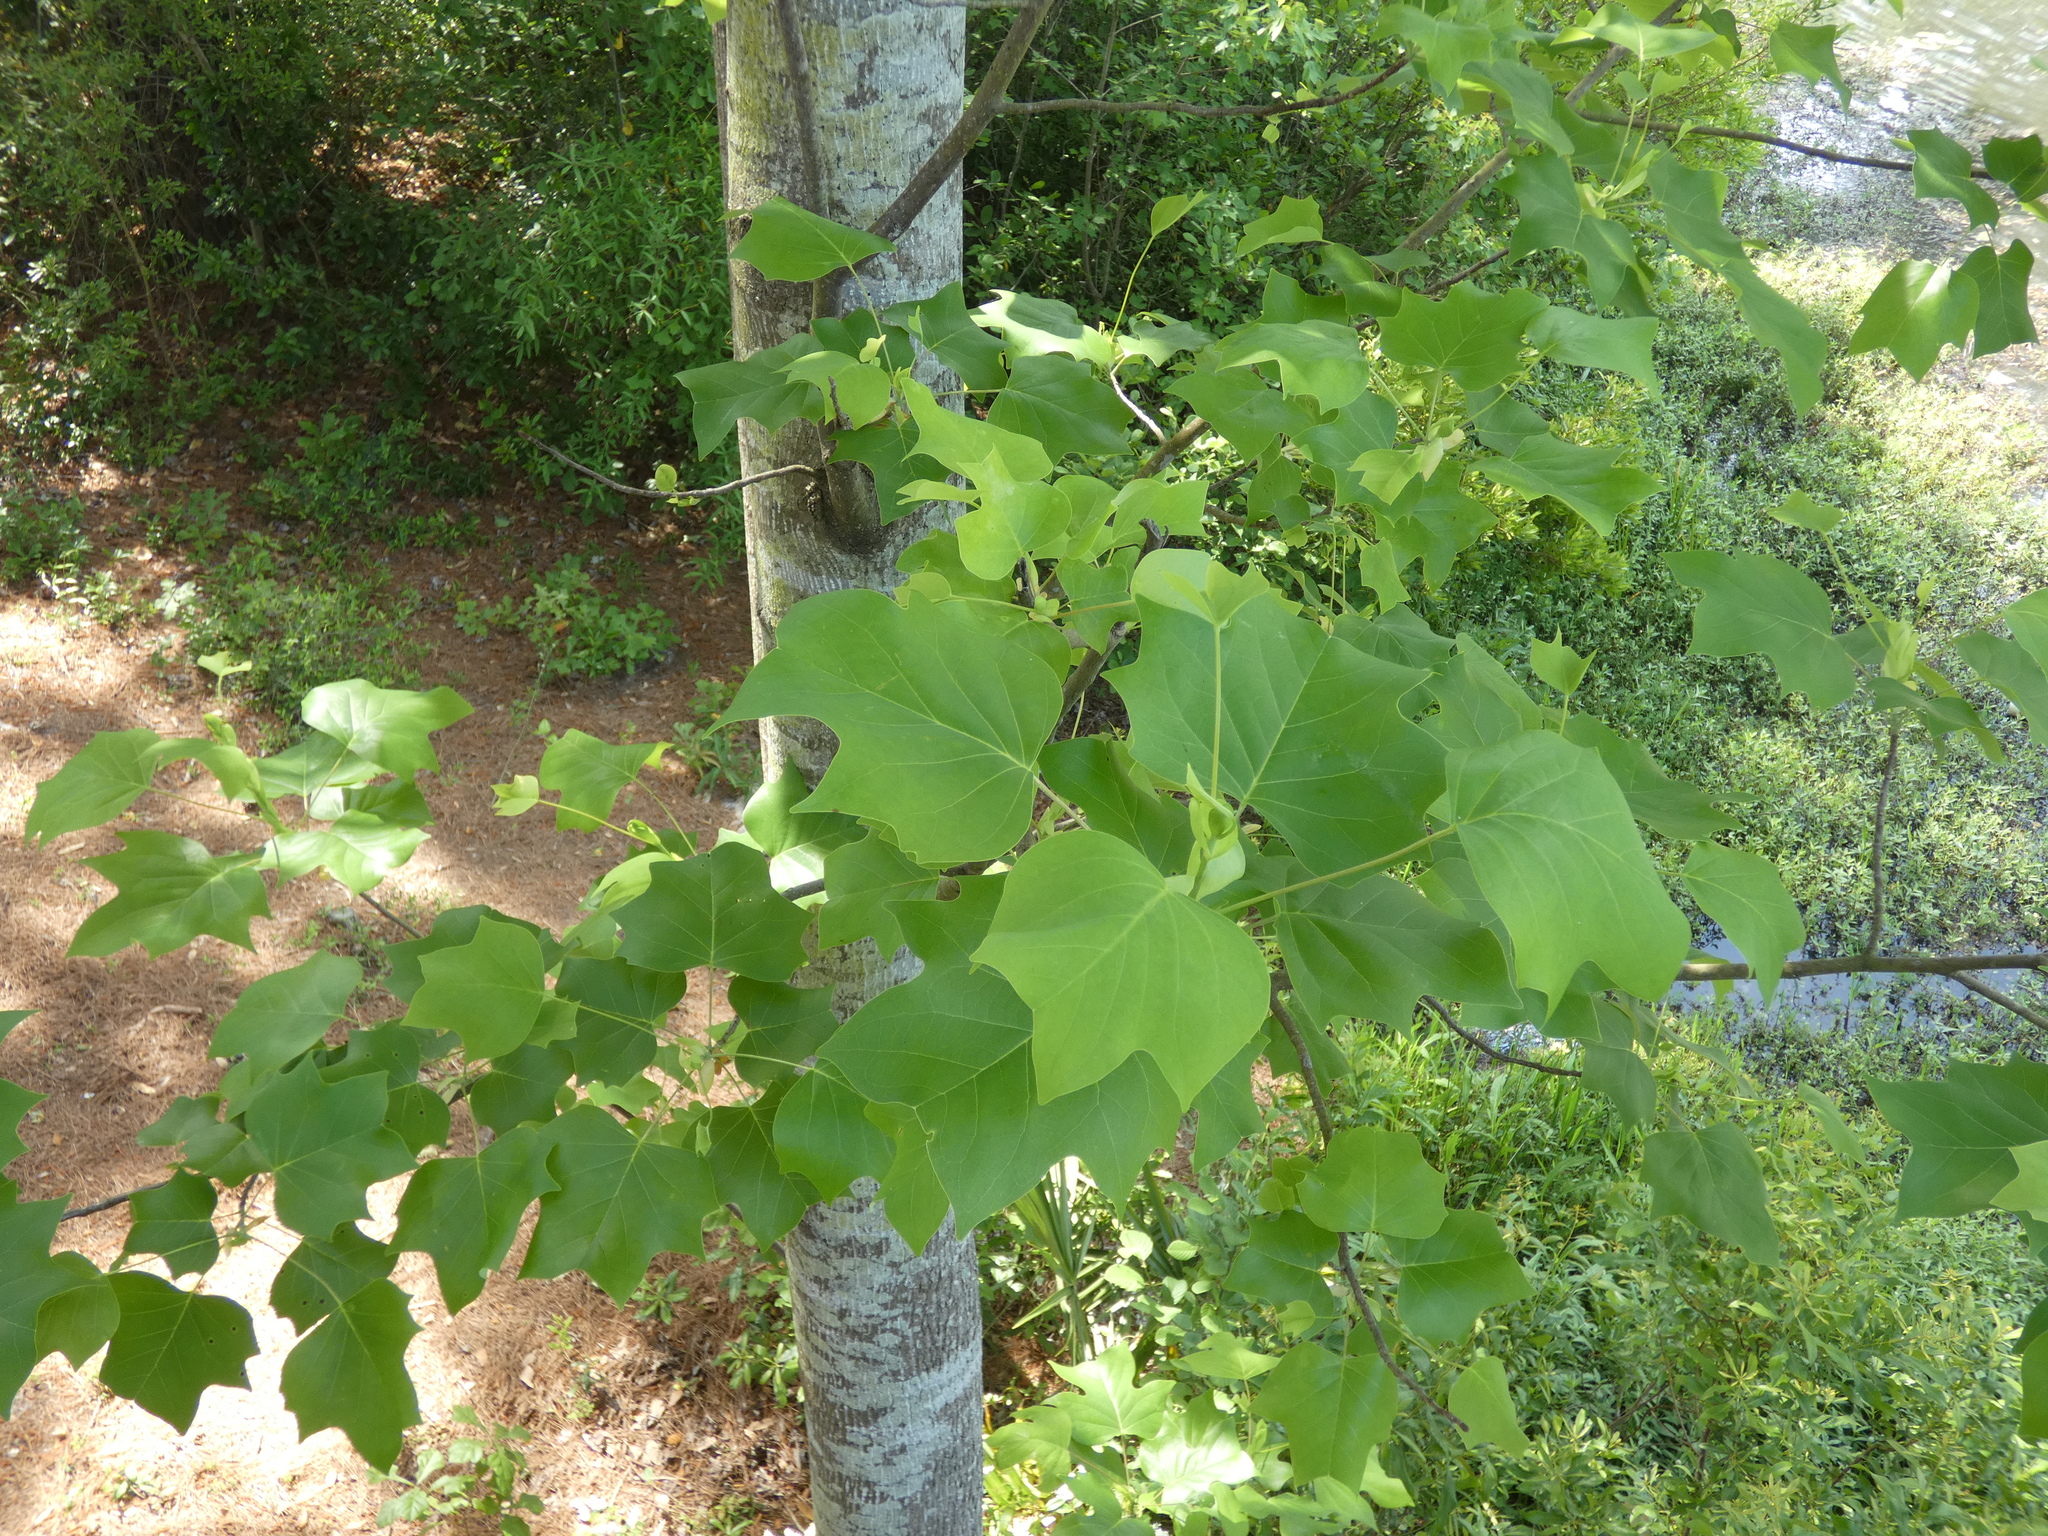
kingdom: Plantae
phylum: Tracheophyta
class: Magnoliopsida
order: Magnoliales
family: Magnoliaceae
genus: Liriodendron
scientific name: Liriodendron tulipifera
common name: Tulip tree
